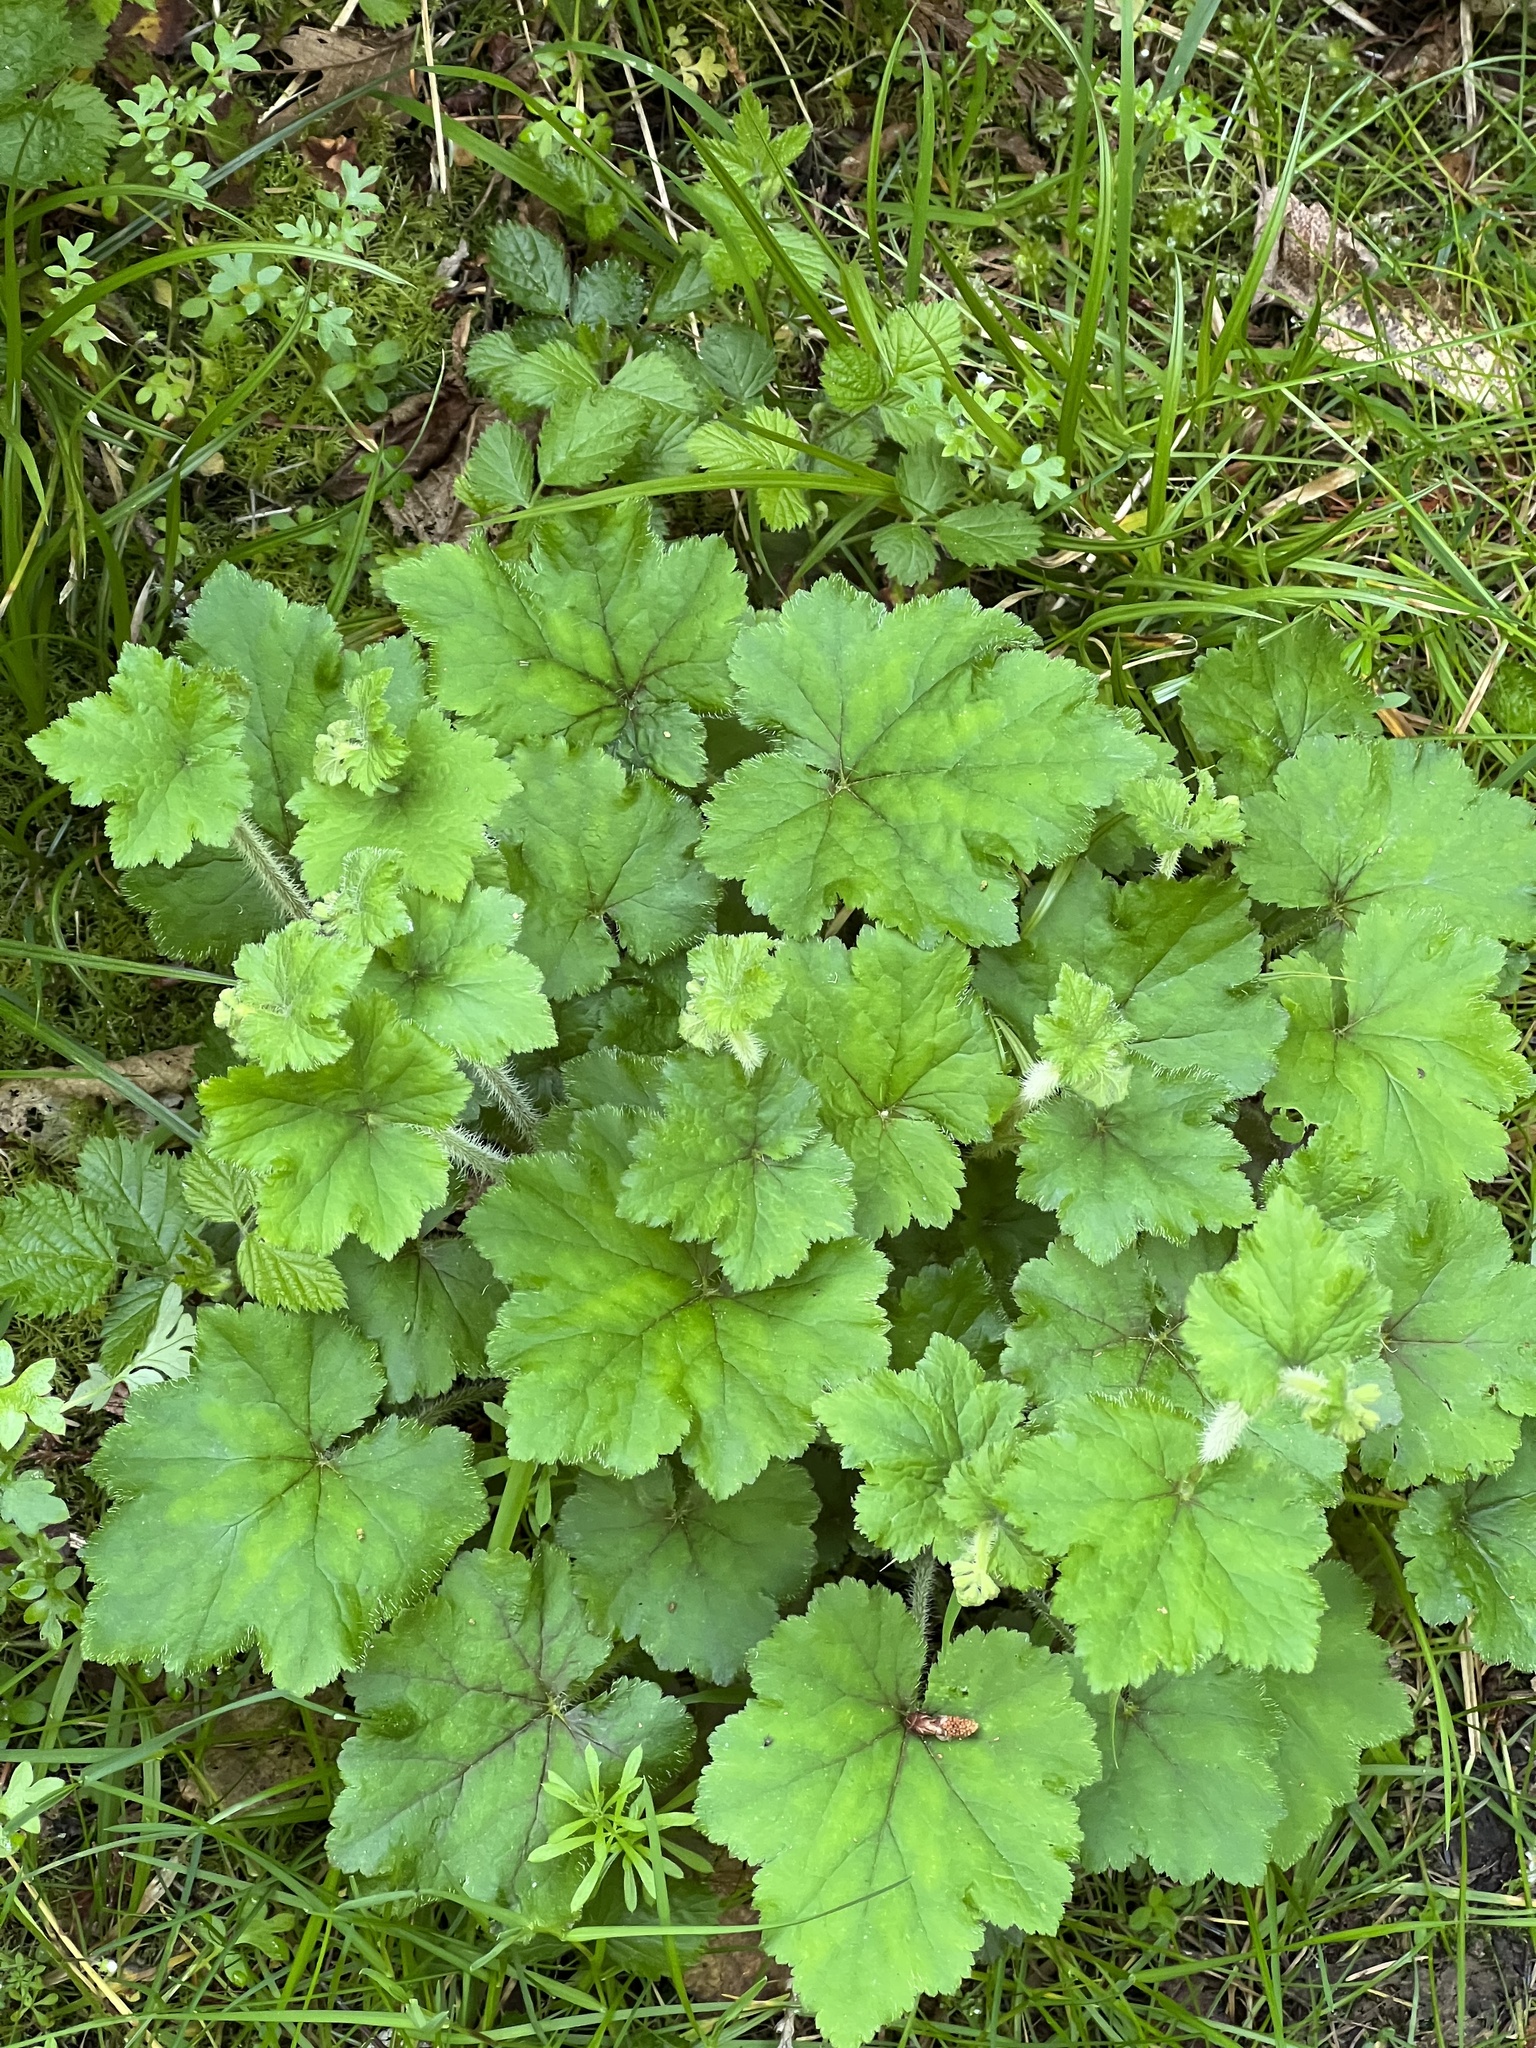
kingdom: Plantae
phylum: Tracheophyta
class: Magnoliopsida
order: Saxifragales
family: Saxifragaceae
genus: Tellima
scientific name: Tellima grandiflora
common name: Fringecups
